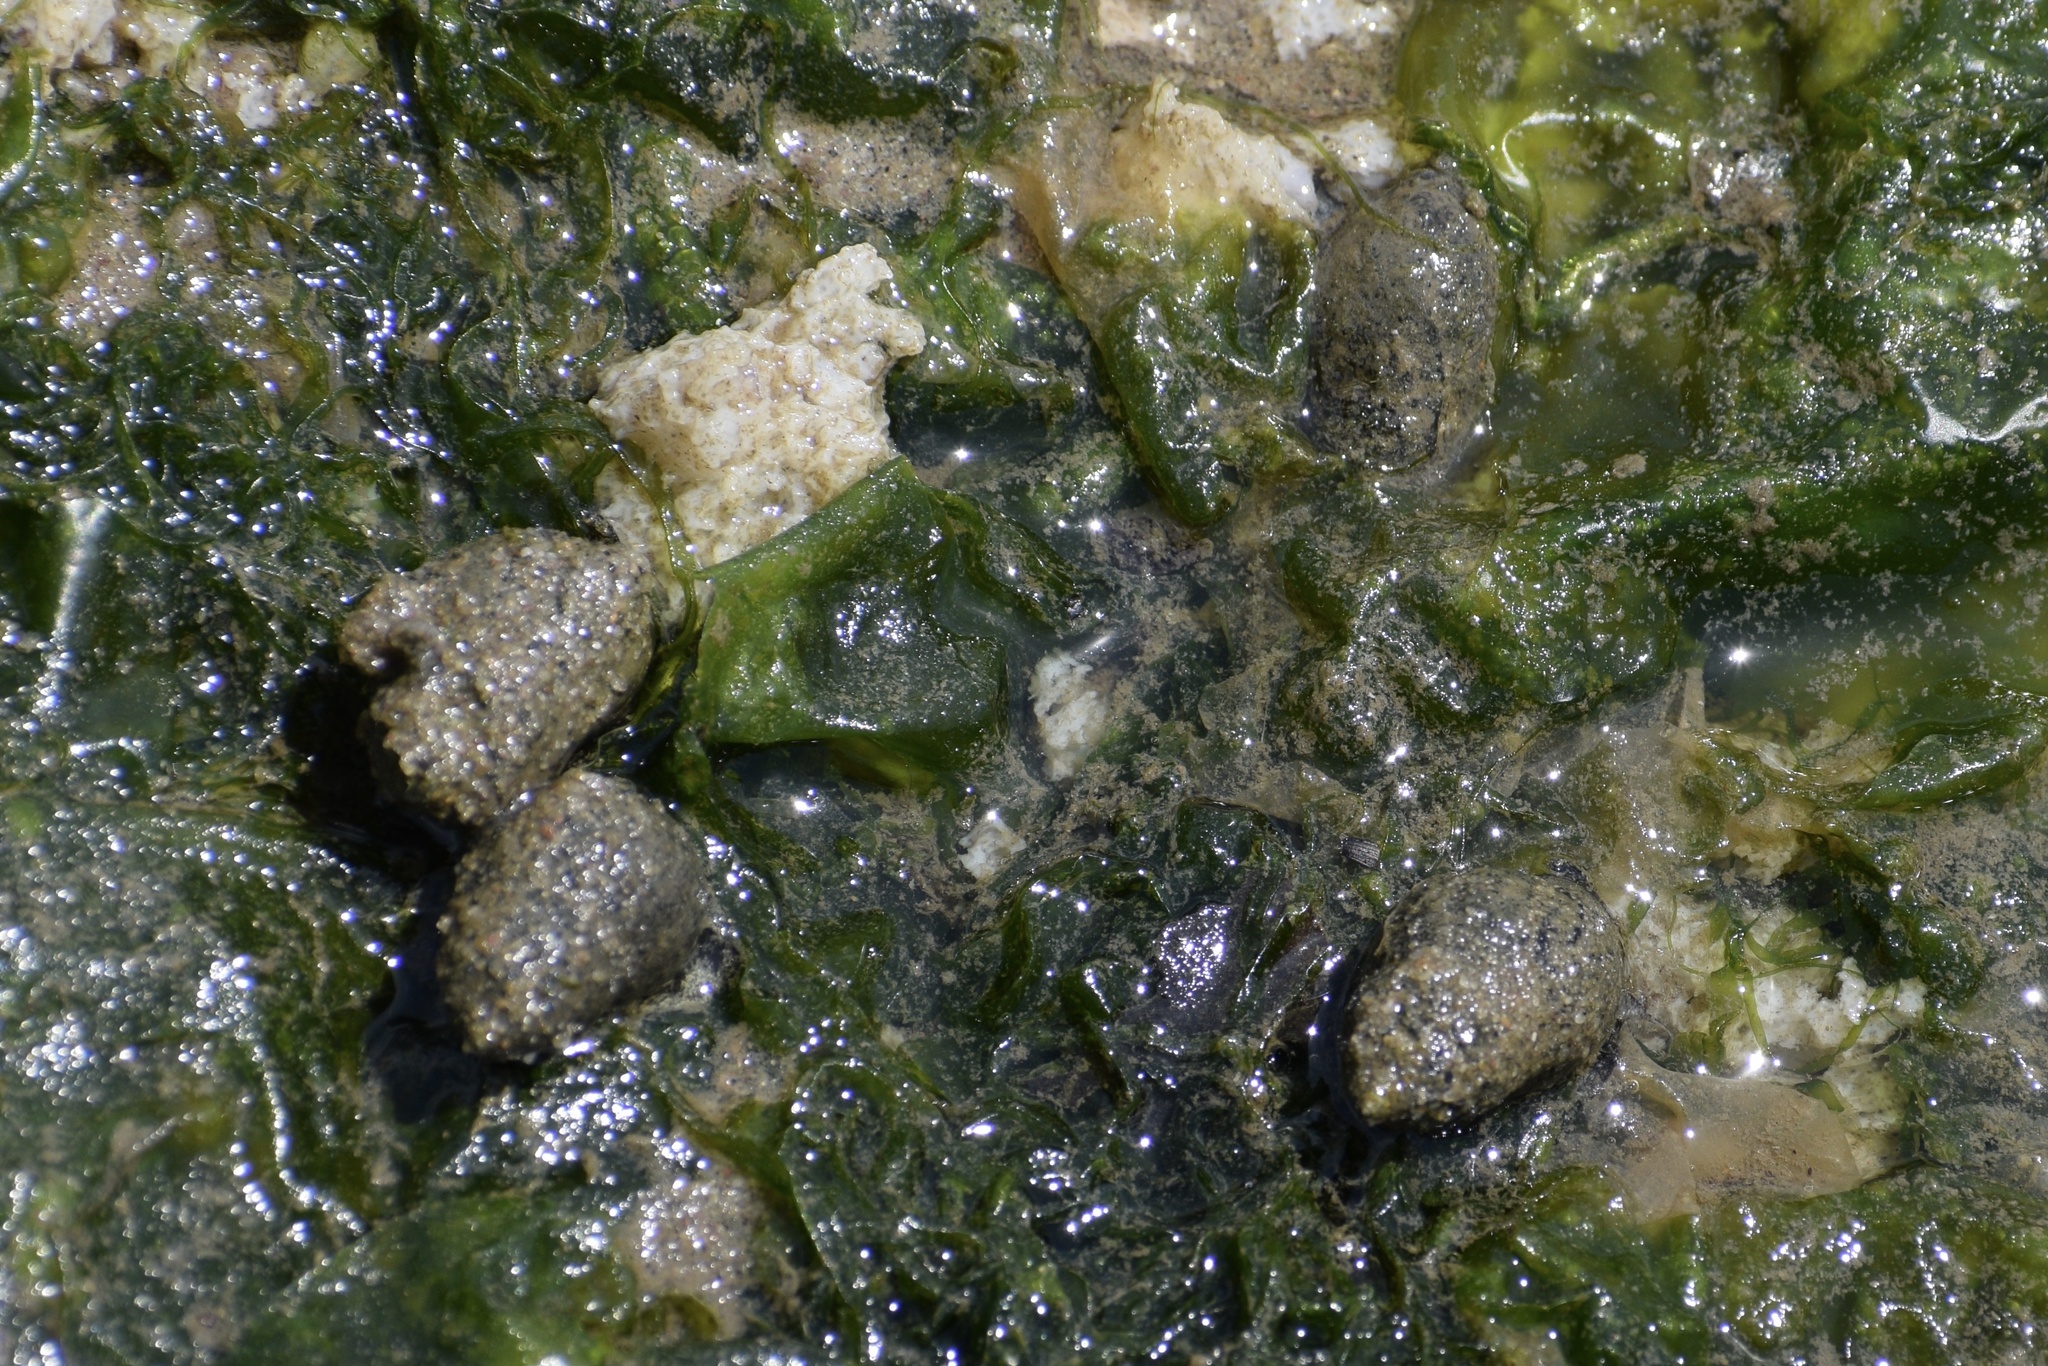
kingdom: Animalia
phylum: Mollusca
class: Gastropoda
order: Neogastropoda
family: Nassariidae
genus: Ilyanassa
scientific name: Ilyanassa obsoleta
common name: Eastern mudsnail
